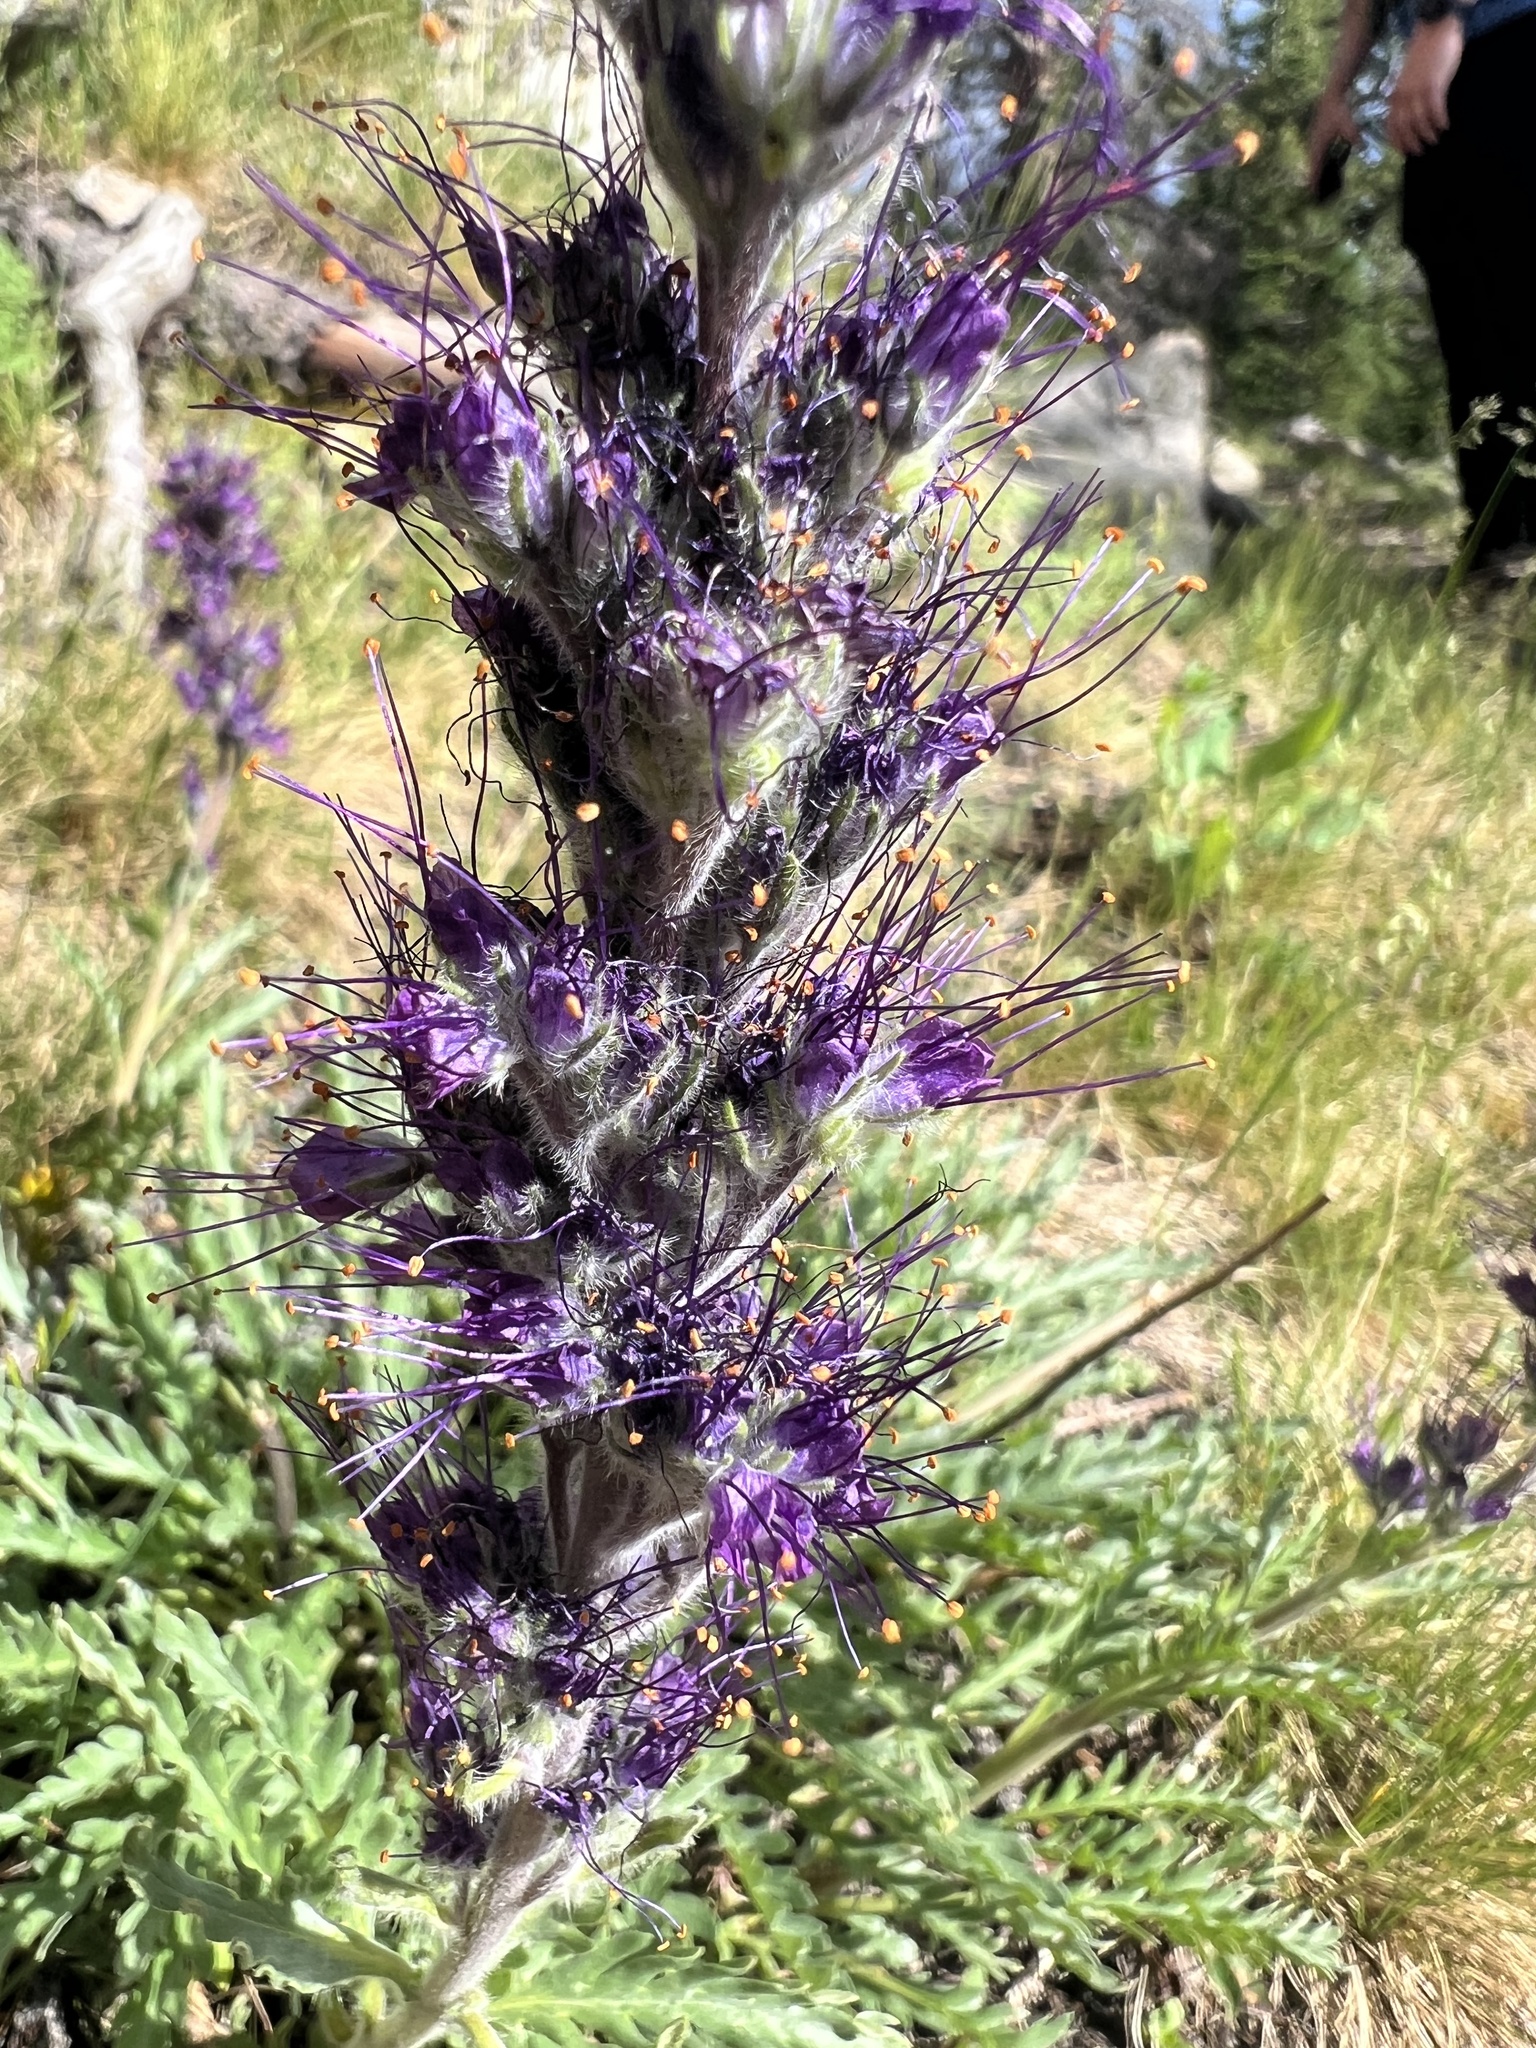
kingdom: Plantae
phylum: Tracheophyta
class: Magnoliopsida
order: Boraginales
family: Hydrophyllaceae
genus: Phacelia
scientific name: Phacelia sericea
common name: Silky phacelia
